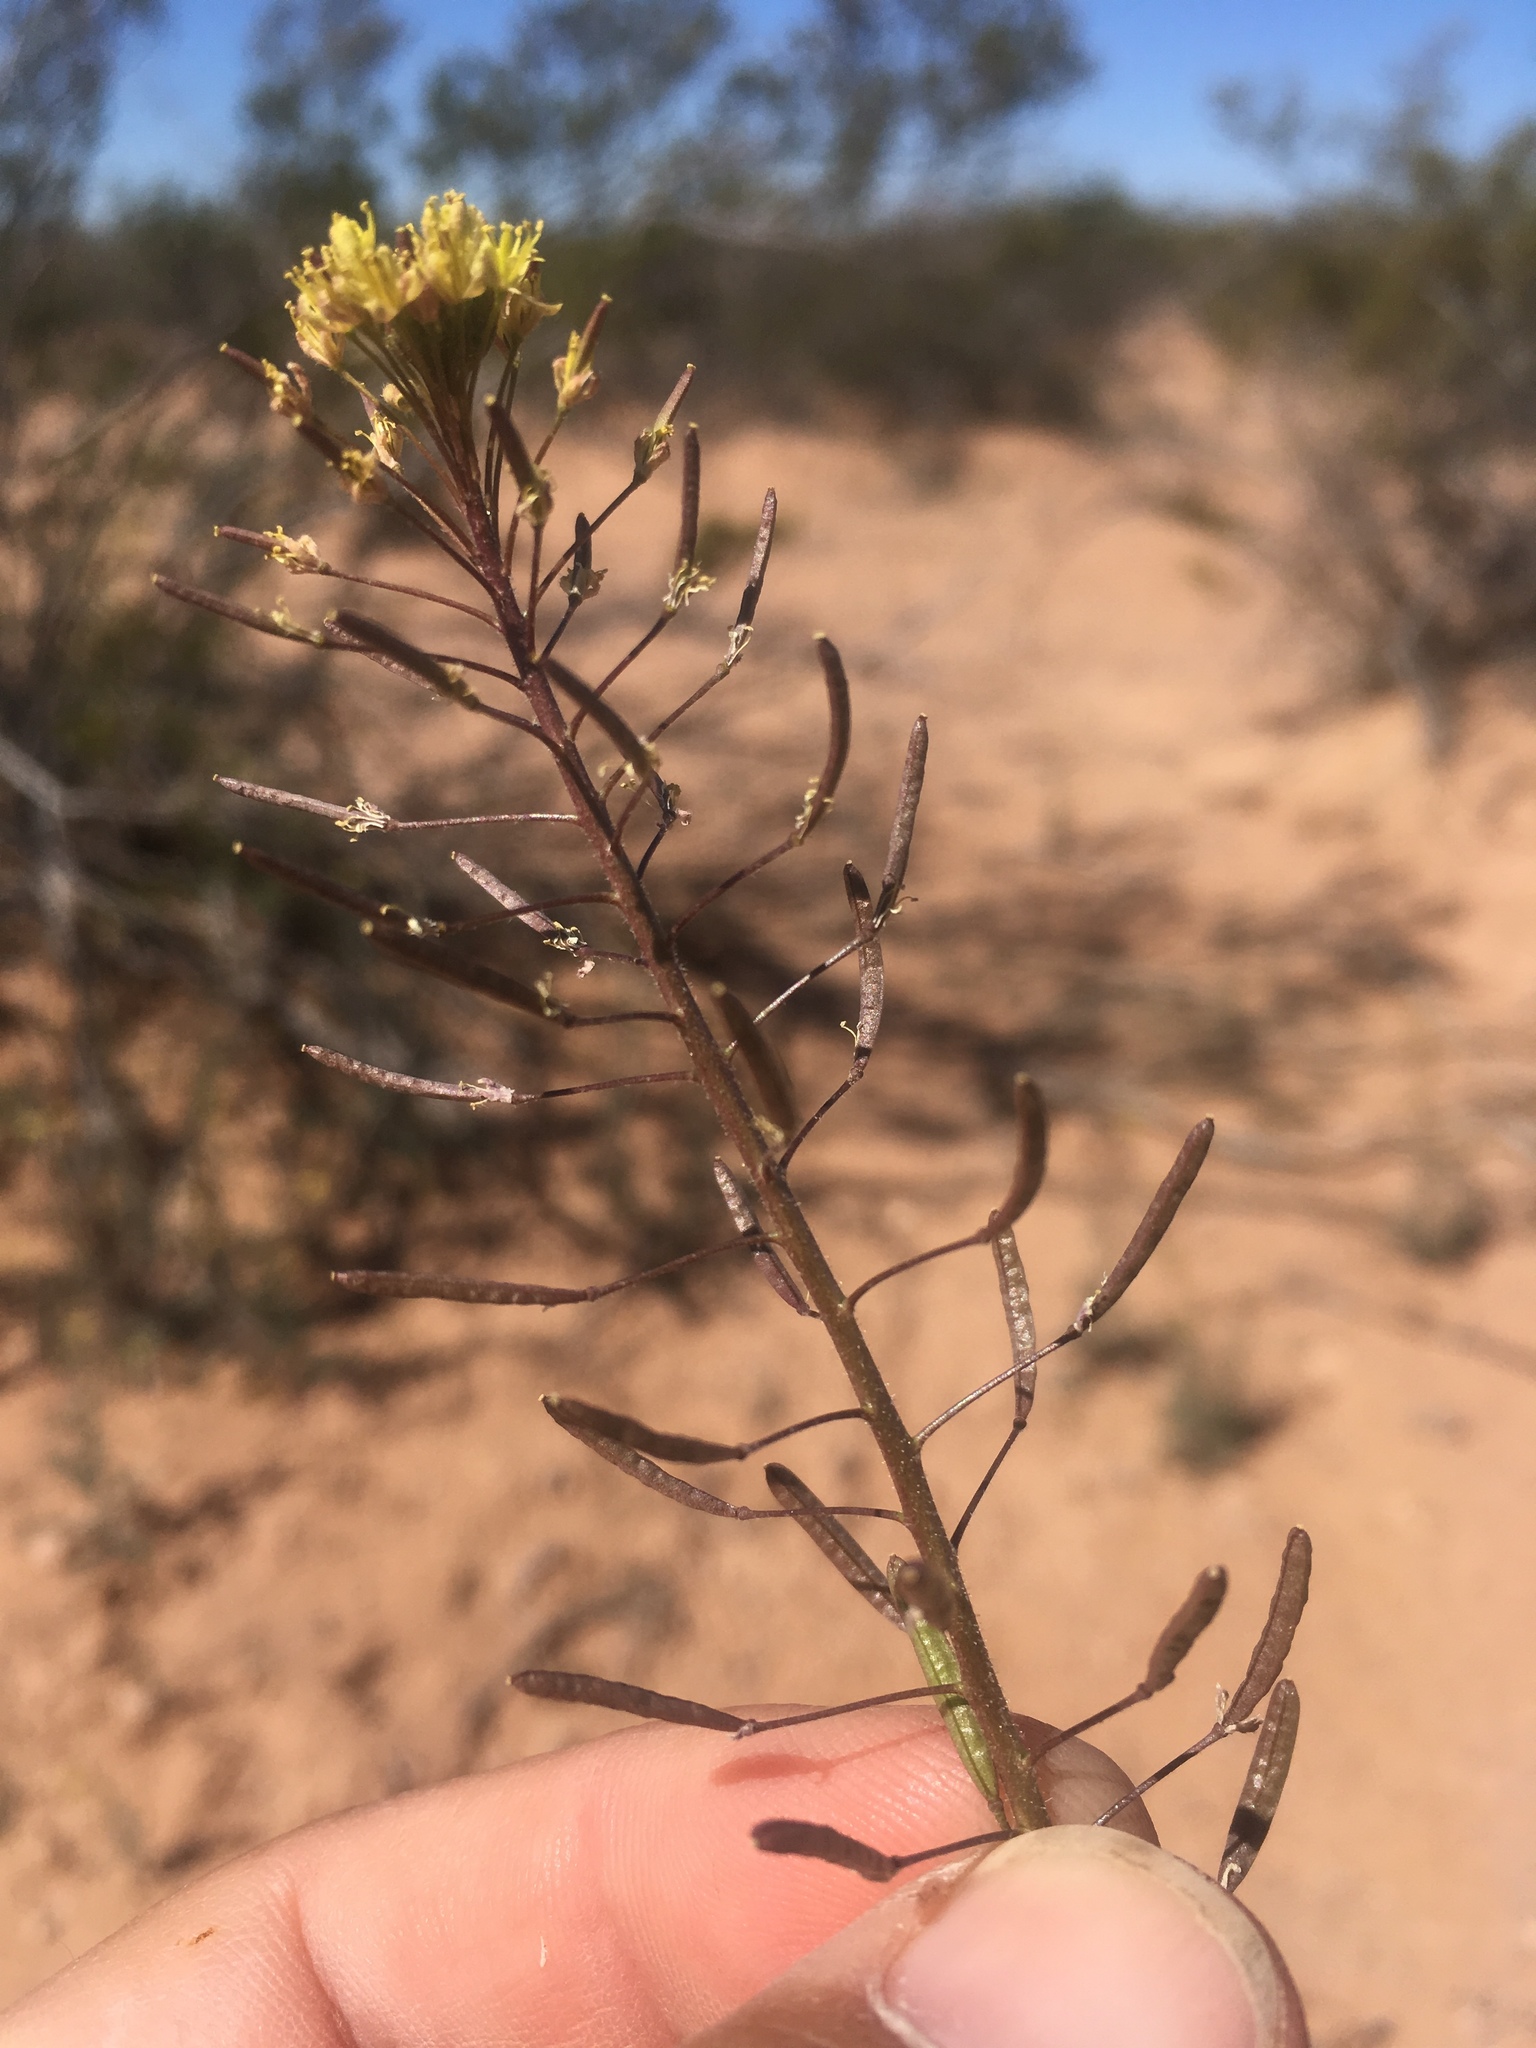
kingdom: Plantae
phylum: Tracheophyta
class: Magnoliopsida
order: Brassicales
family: Brassicaceae
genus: Descurainia
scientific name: Descurainia pinnata
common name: Western tansy mustard
